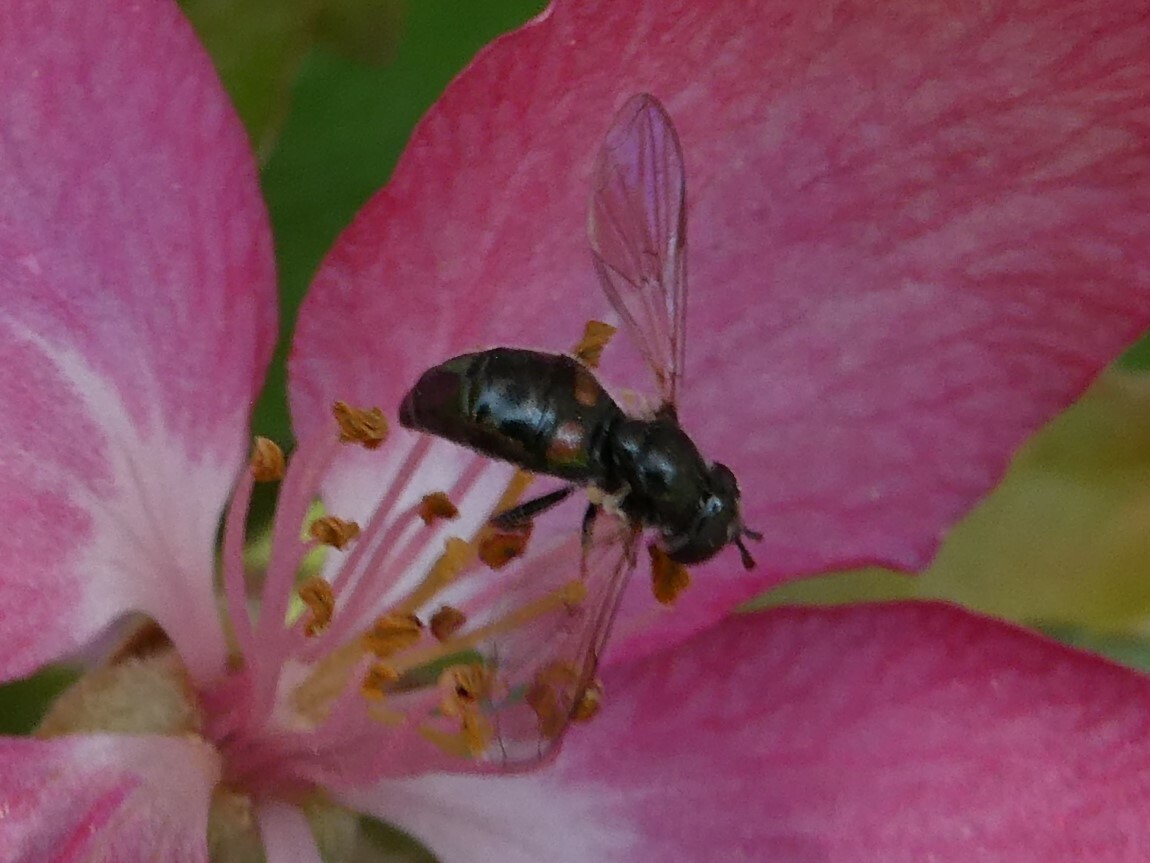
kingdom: Animalia
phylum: Arthropoda
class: Insecta
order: Diptera
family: Syrphidae
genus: Pipiza
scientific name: Pipiza
